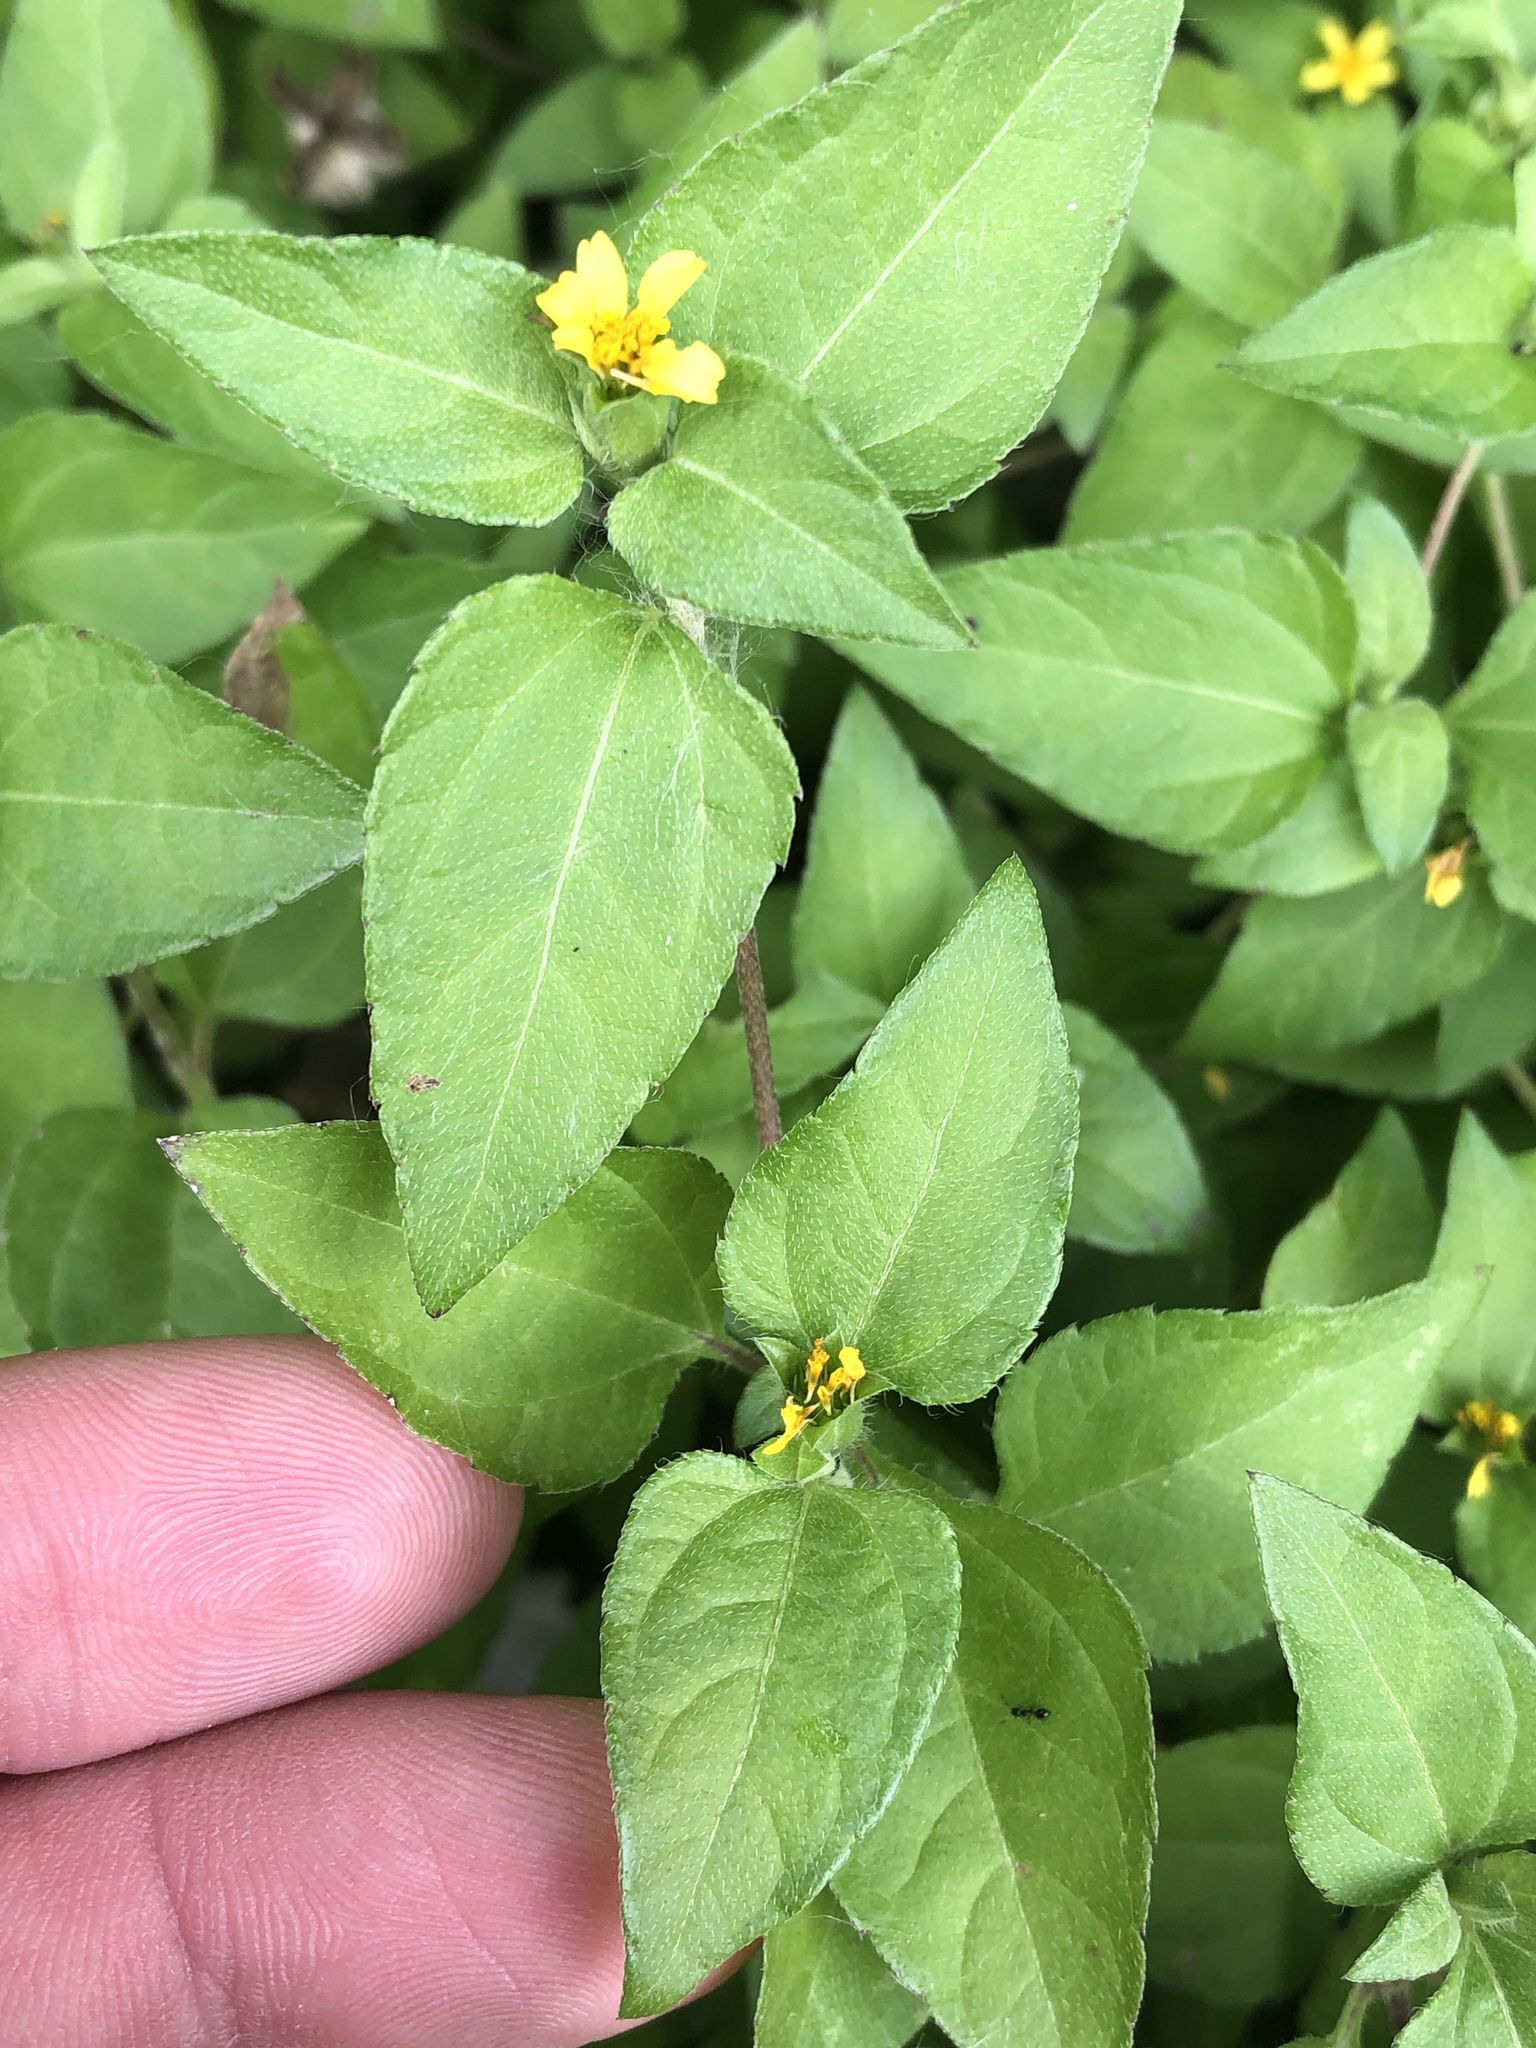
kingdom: Plantae
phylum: Tracheophyta
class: Magnoliopsida
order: Asterales
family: Asteraceae
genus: Calyptocarpus
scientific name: Calyptocarpus vialis
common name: Straggler daisy
